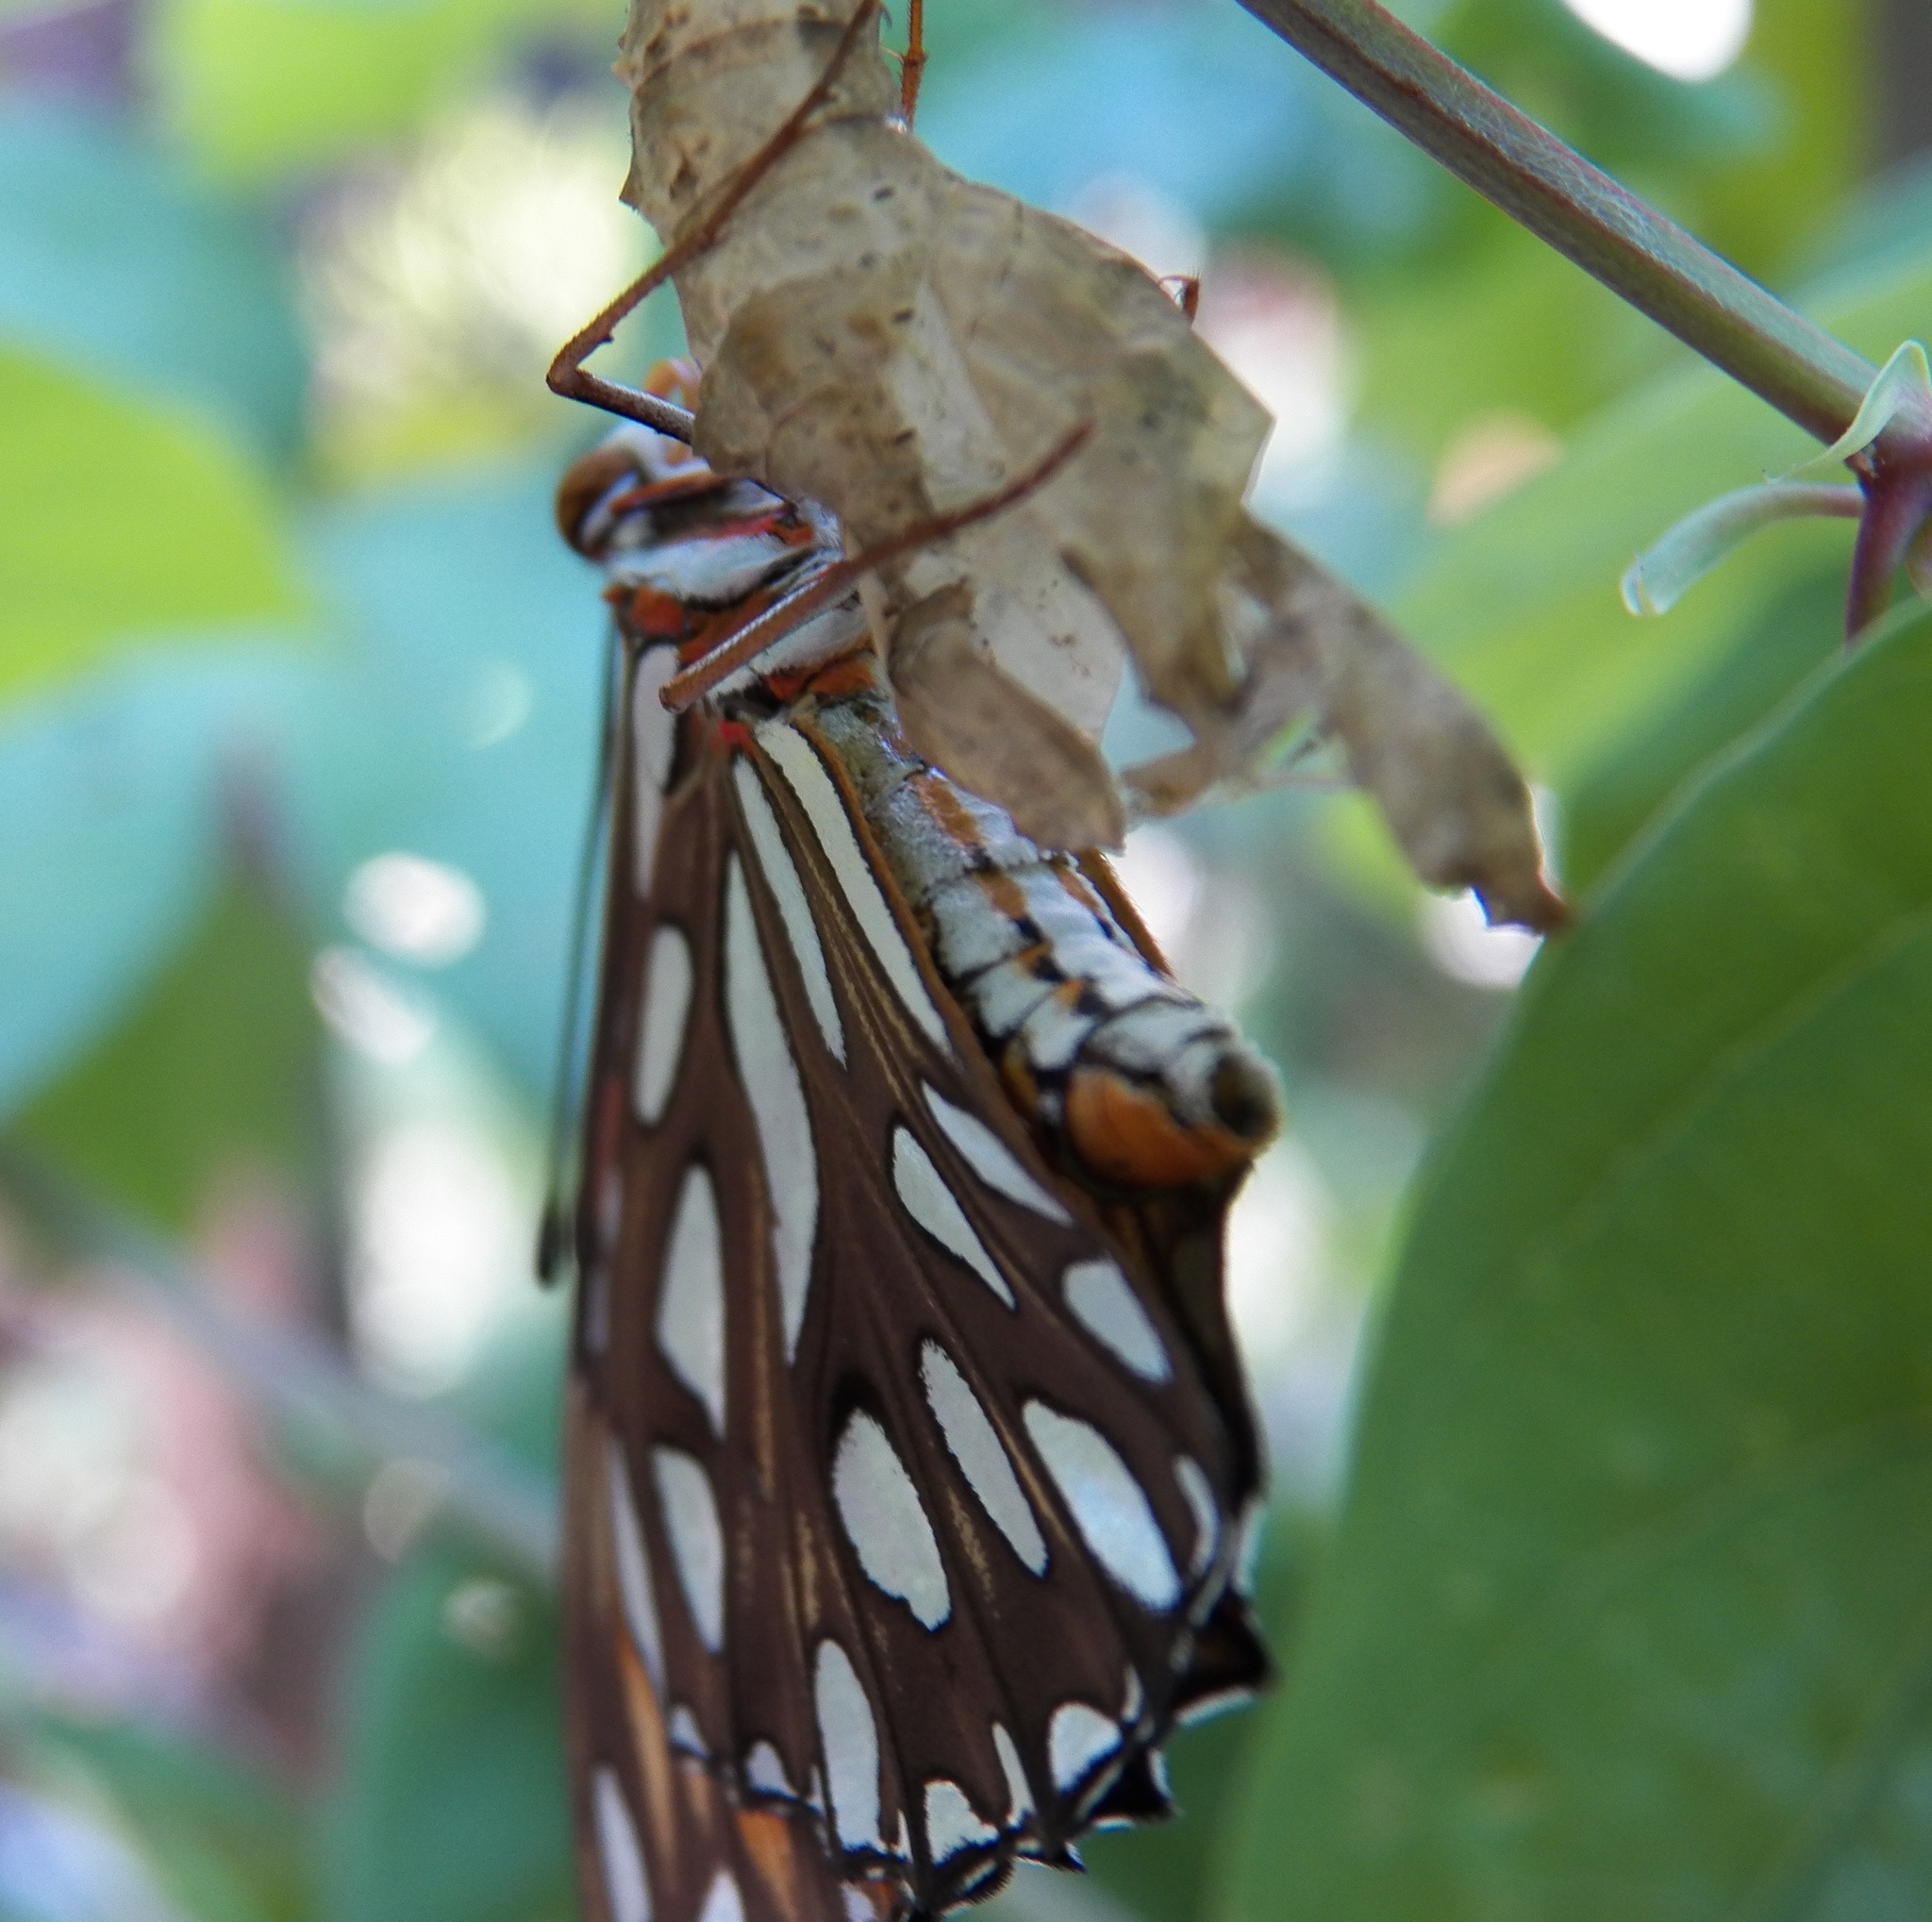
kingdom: Animalia
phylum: Arthropoda
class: Insecta
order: Lepidoptera
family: Nymphalidae
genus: Dione
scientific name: Dione vanillae
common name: Gulf fritillary
